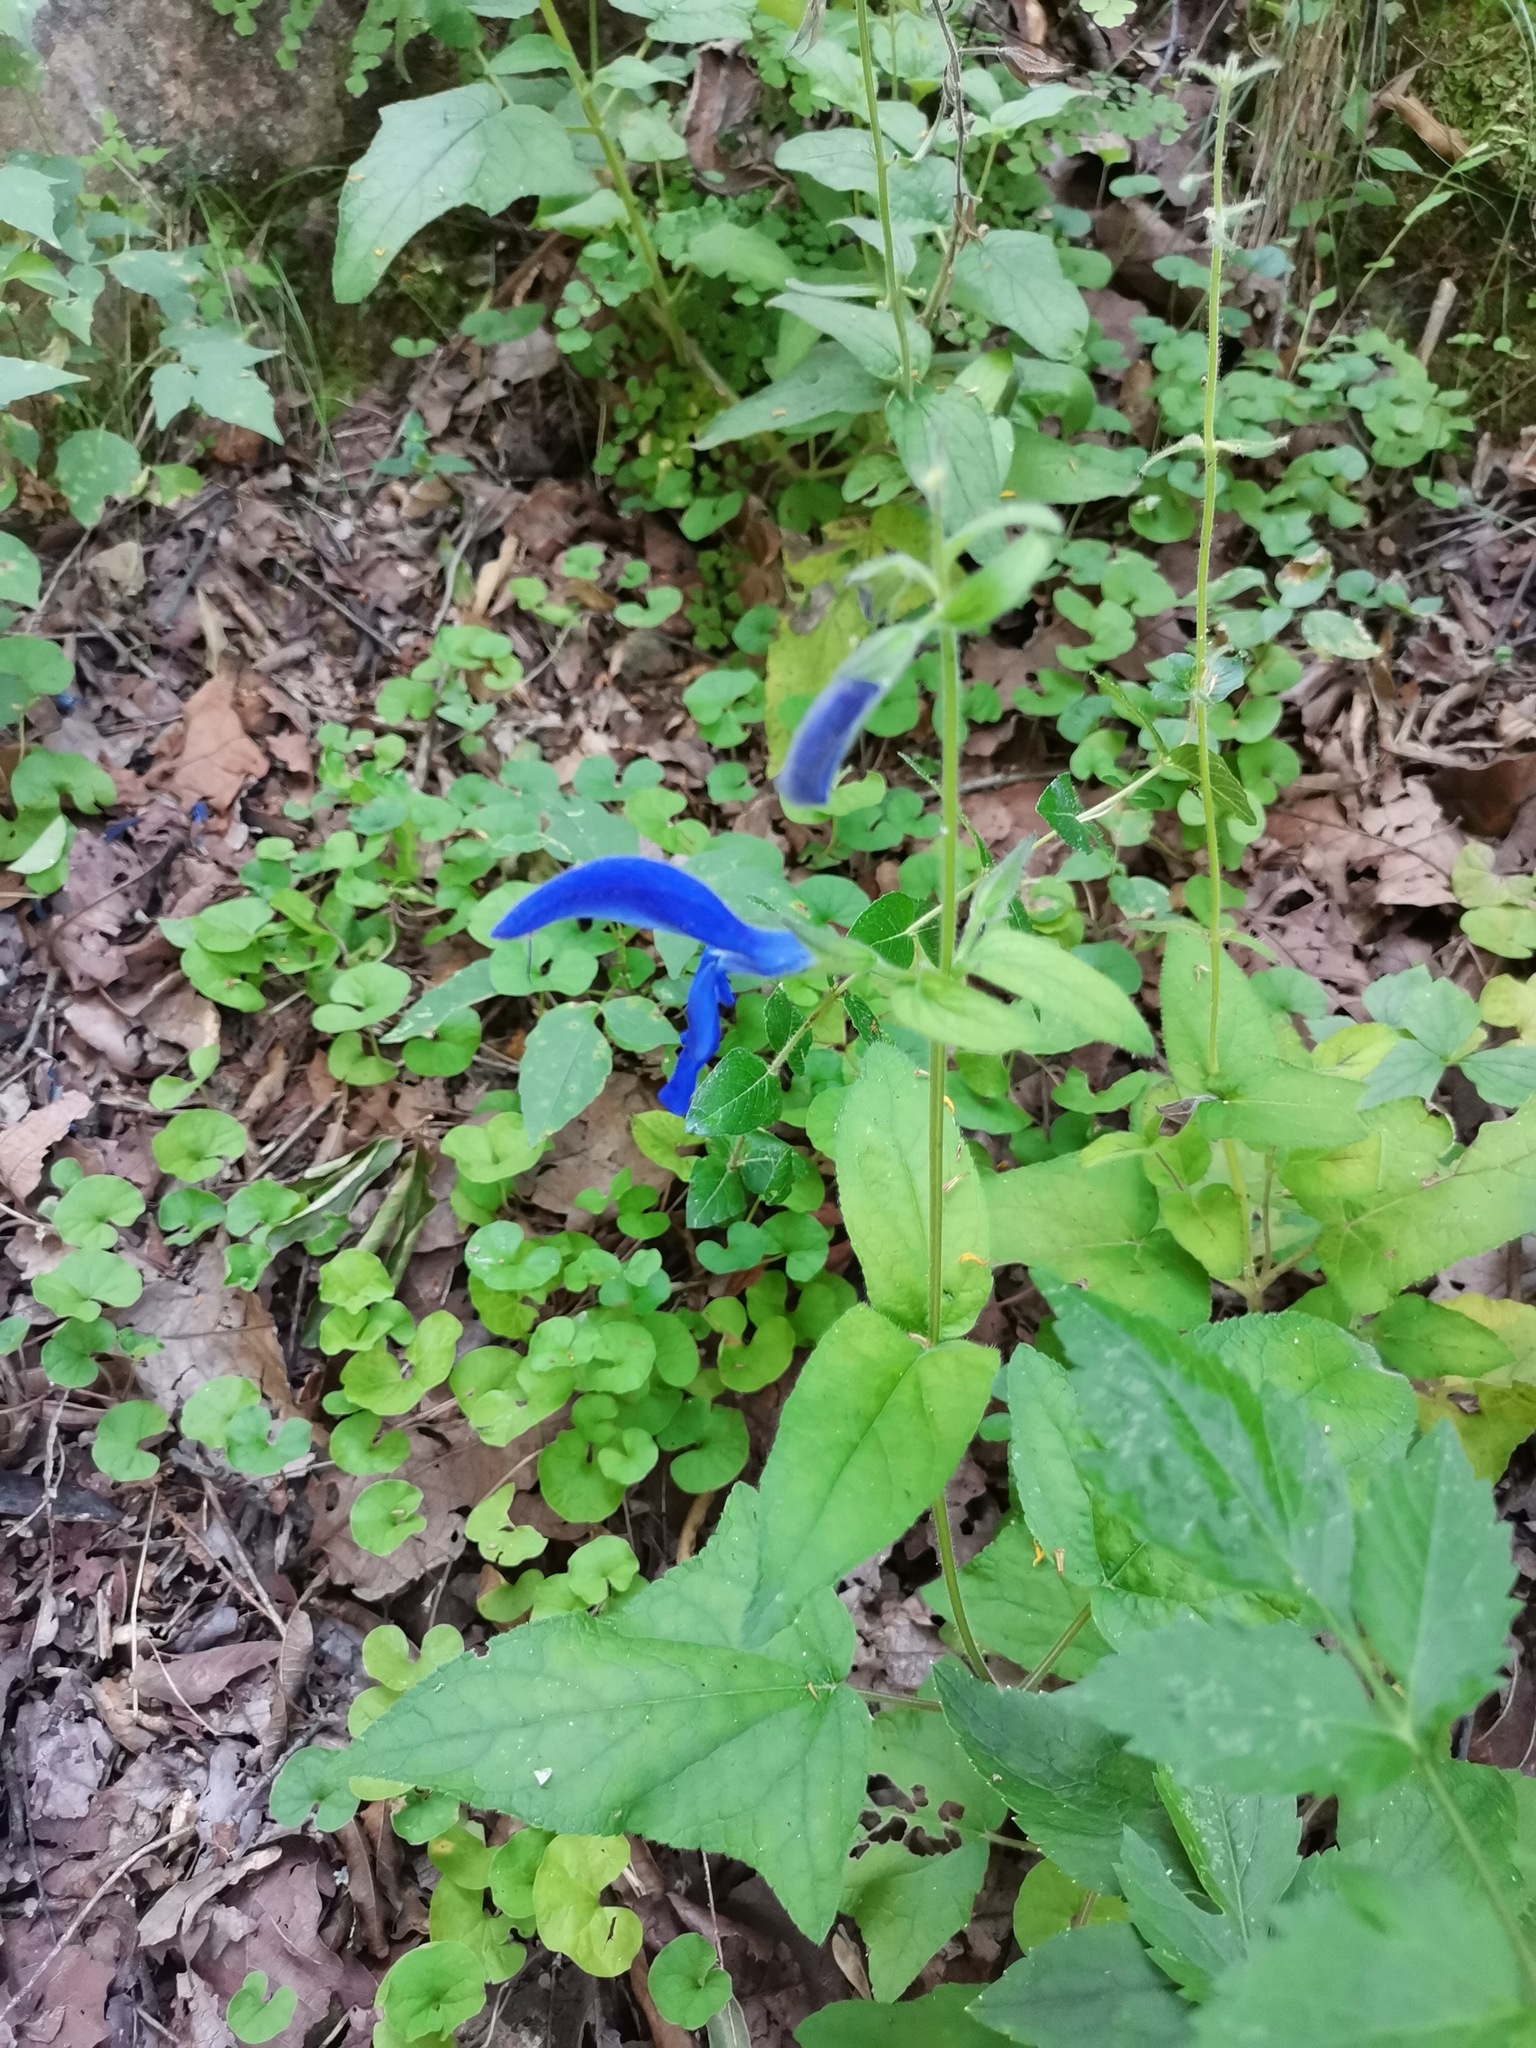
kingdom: Plantae
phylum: Tracheophyta
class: Magnoliopsida
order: Lamiales
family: Lamiaceae
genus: Salvia
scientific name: Salvia patens
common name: Blue sage
